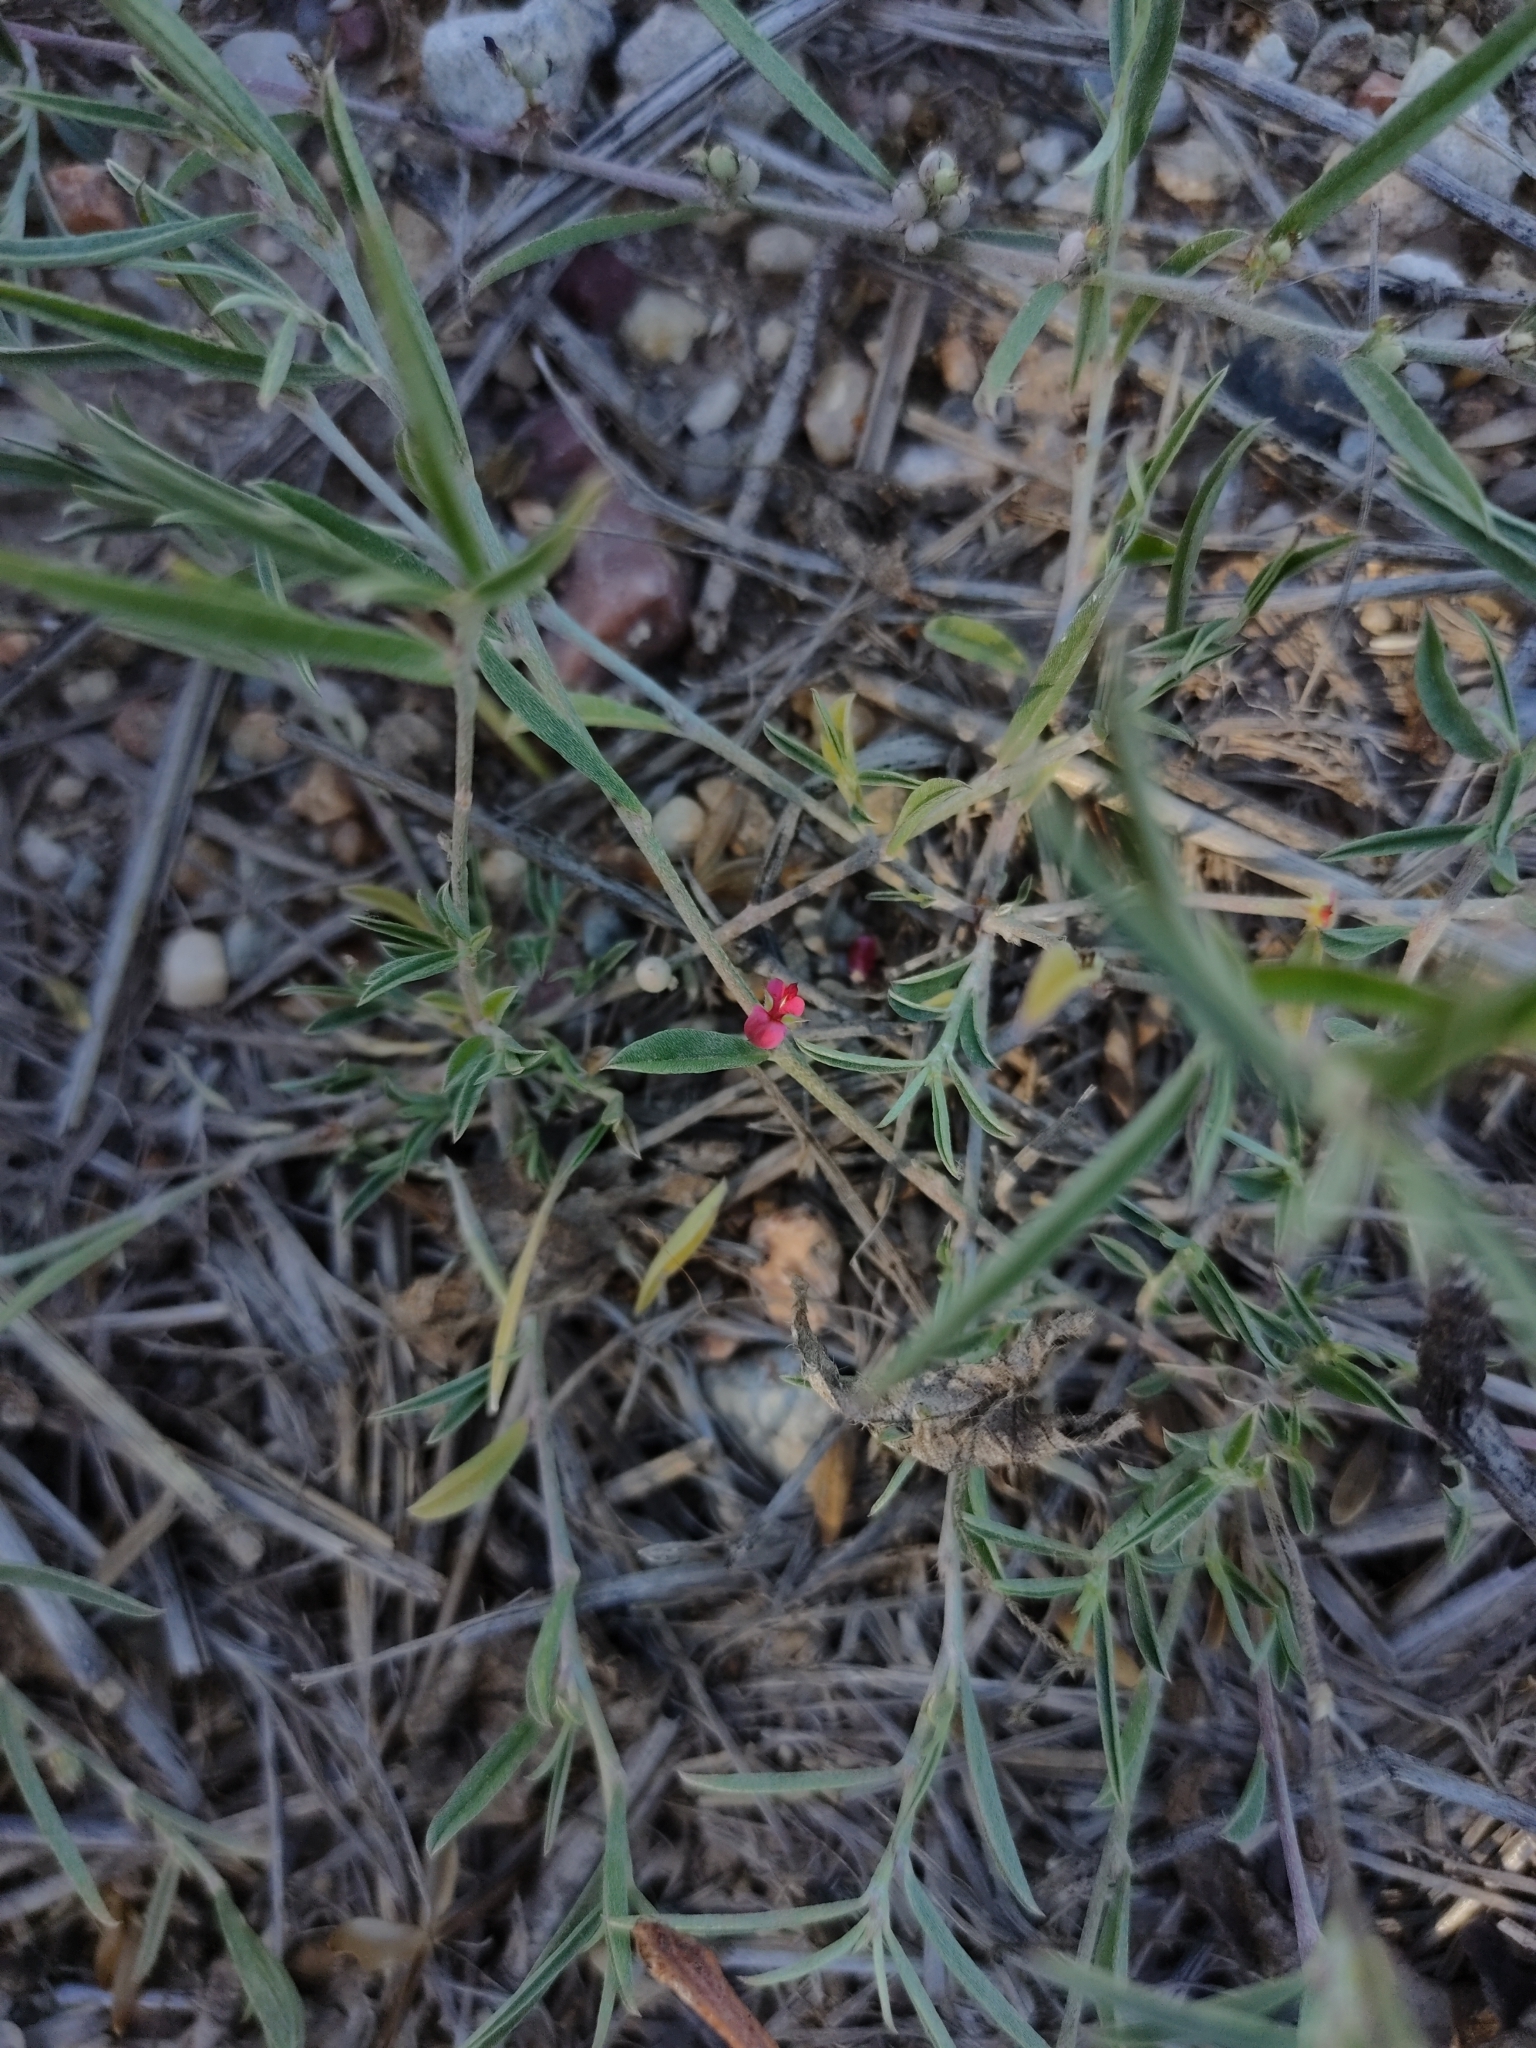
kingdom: Plantae
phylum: Tracheophyta
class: Magnoliopsida
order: Fabales
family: Fabaceae
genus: Indigofera
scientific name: Indigofera linifolia
